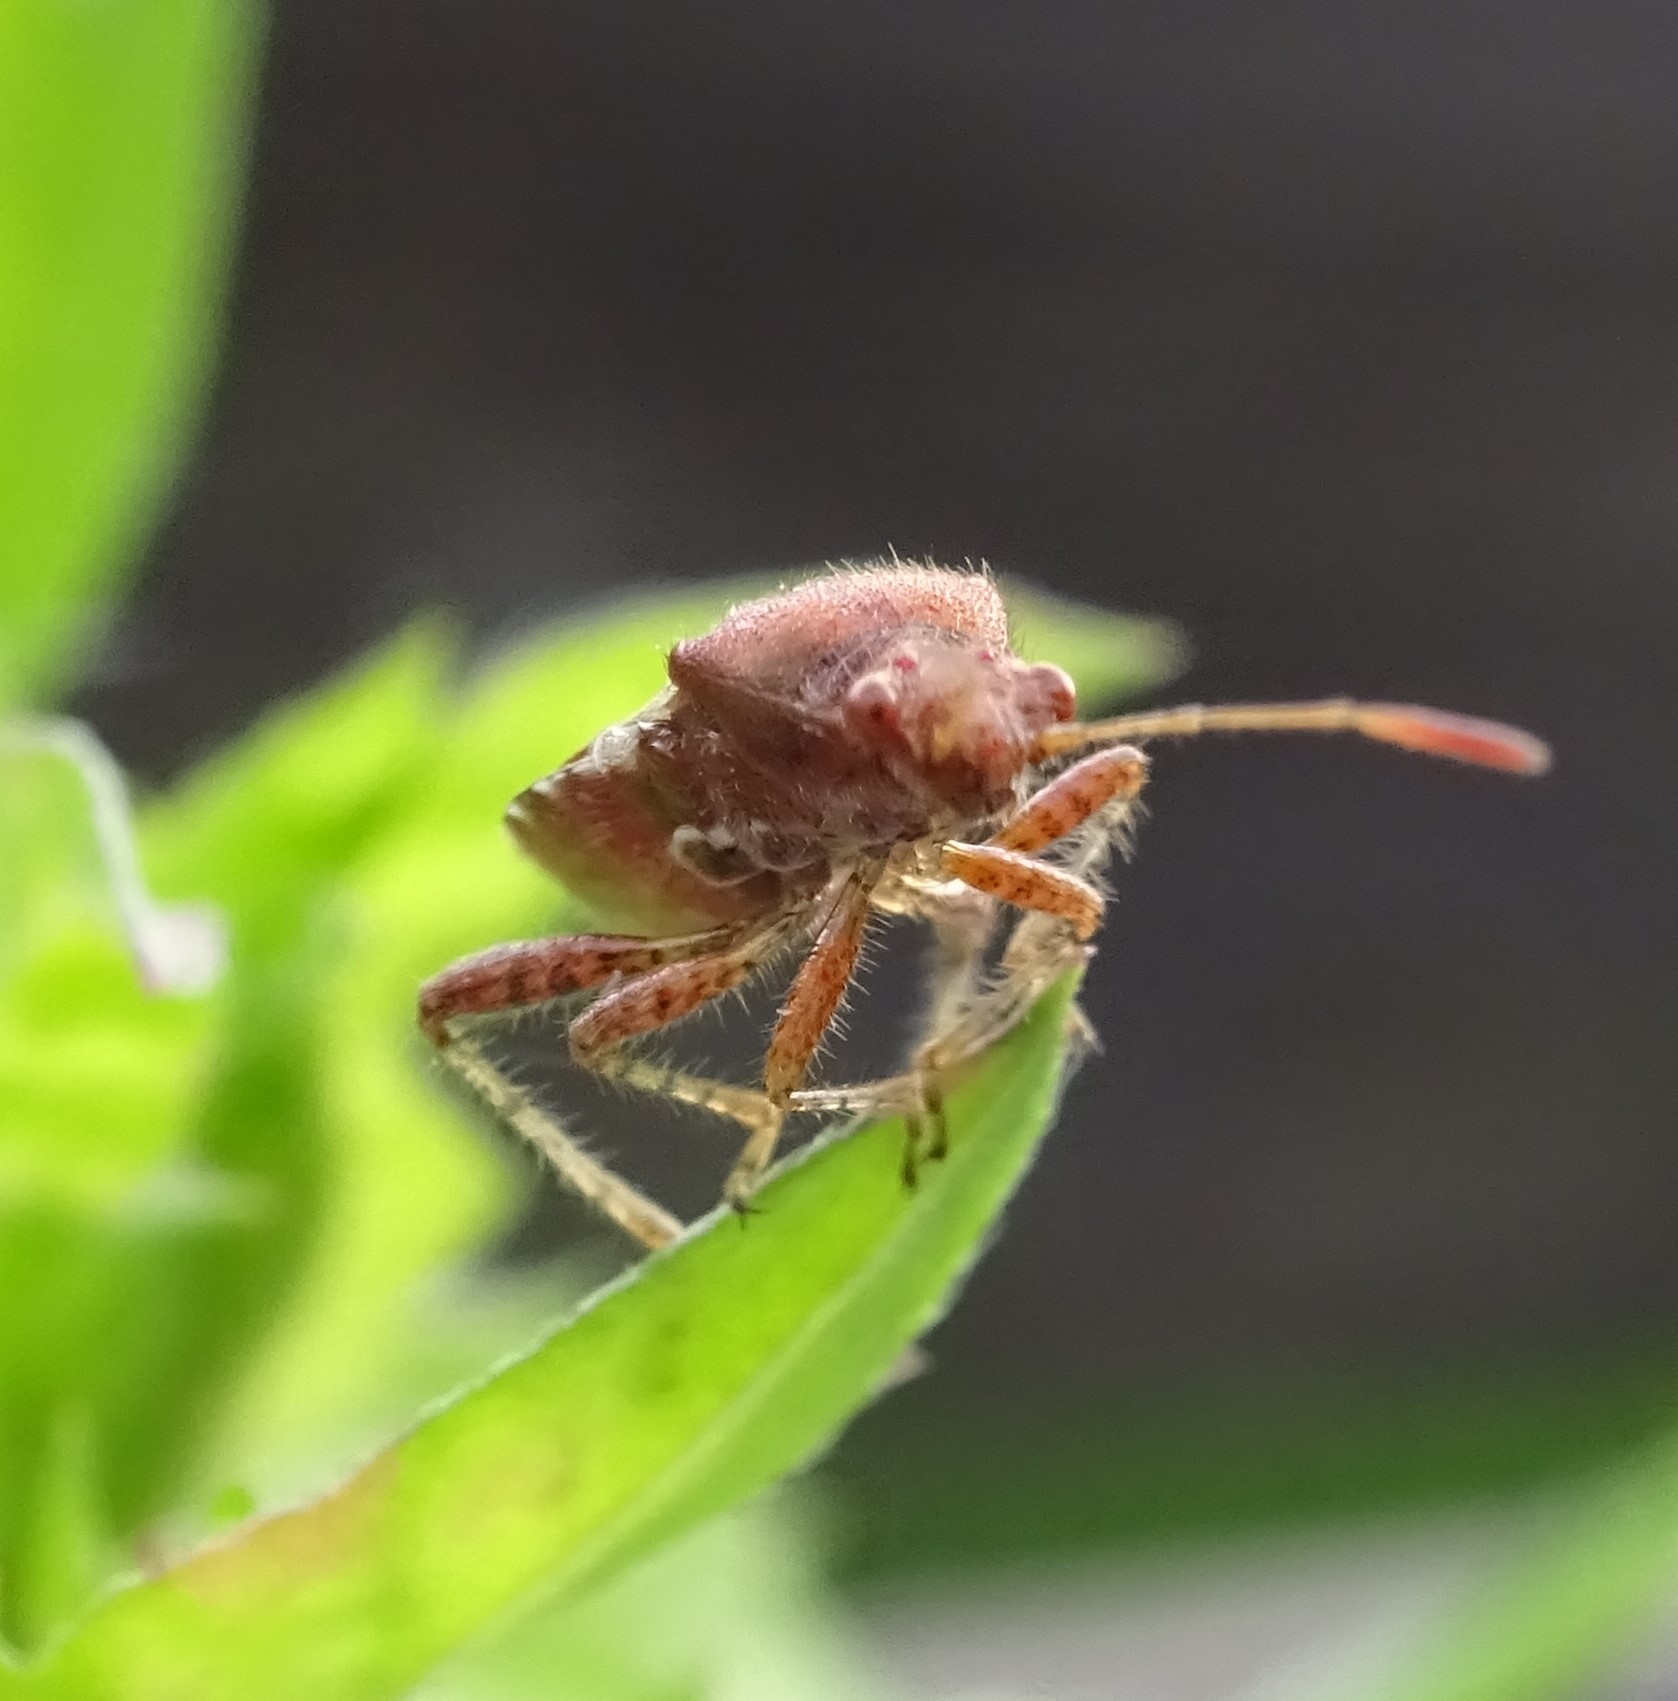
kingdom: Animalia
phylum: Arthropoda
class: Insecta
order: Hemiptera
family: Rhopalidae
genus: Rhopalus
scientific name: Rhopalus subrufus
